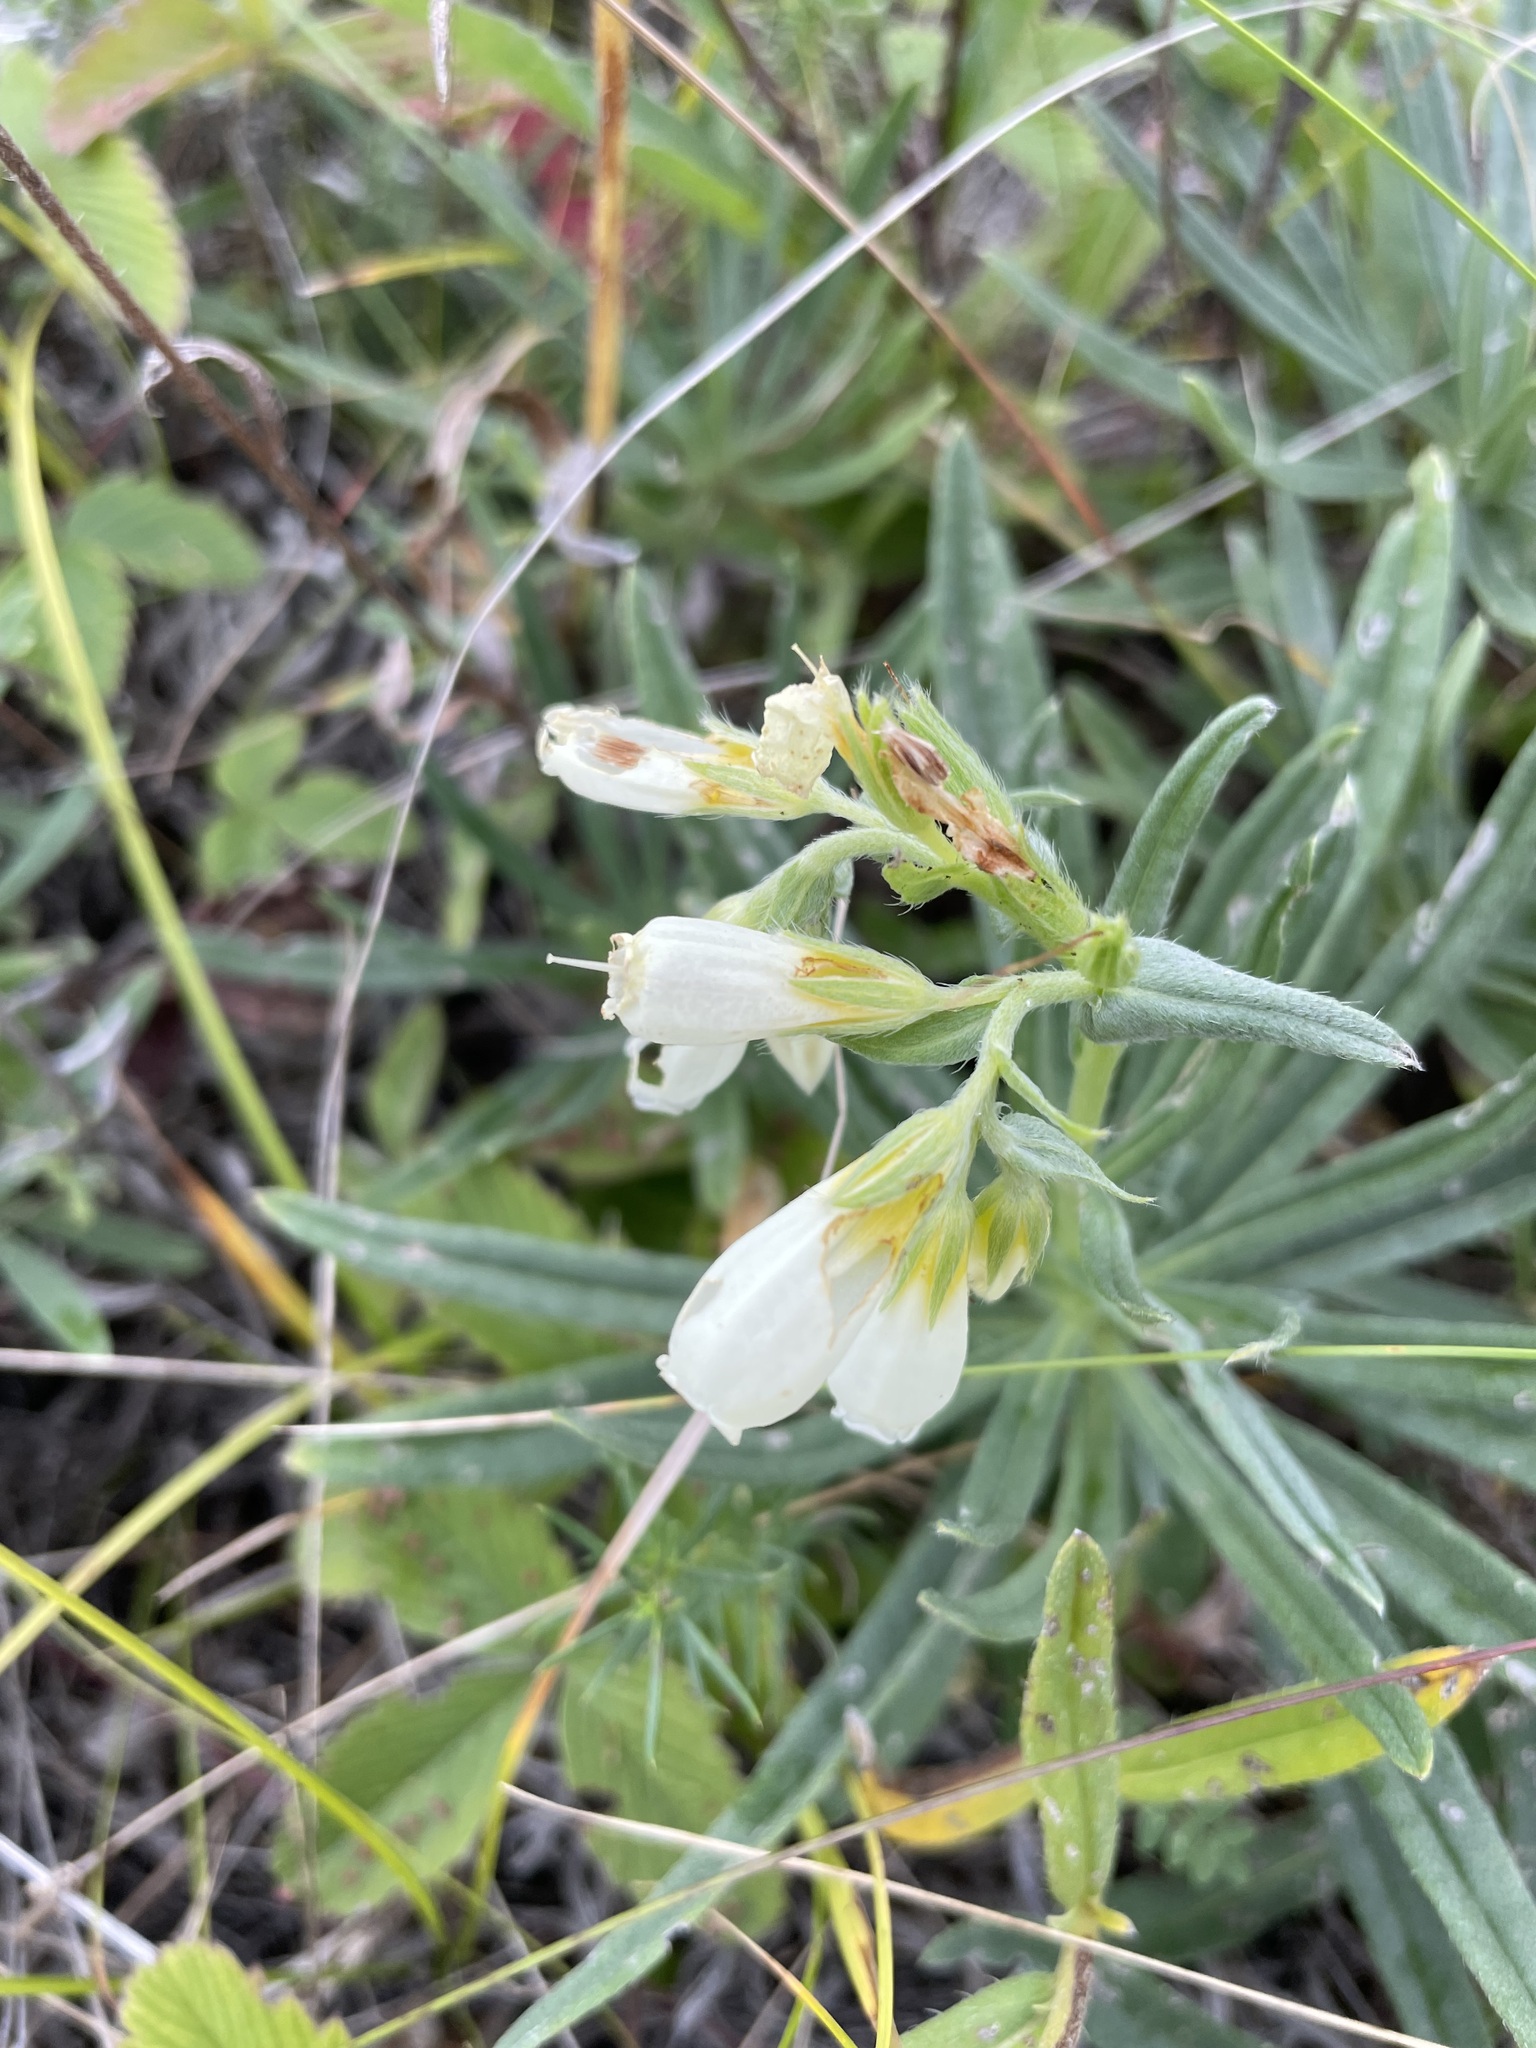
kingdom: Plantae
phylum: Tracheophyta
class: Magnoliopsida
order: Boraginales
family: Boraginaceae
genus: Onosma
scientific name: Onosma simplicissima
